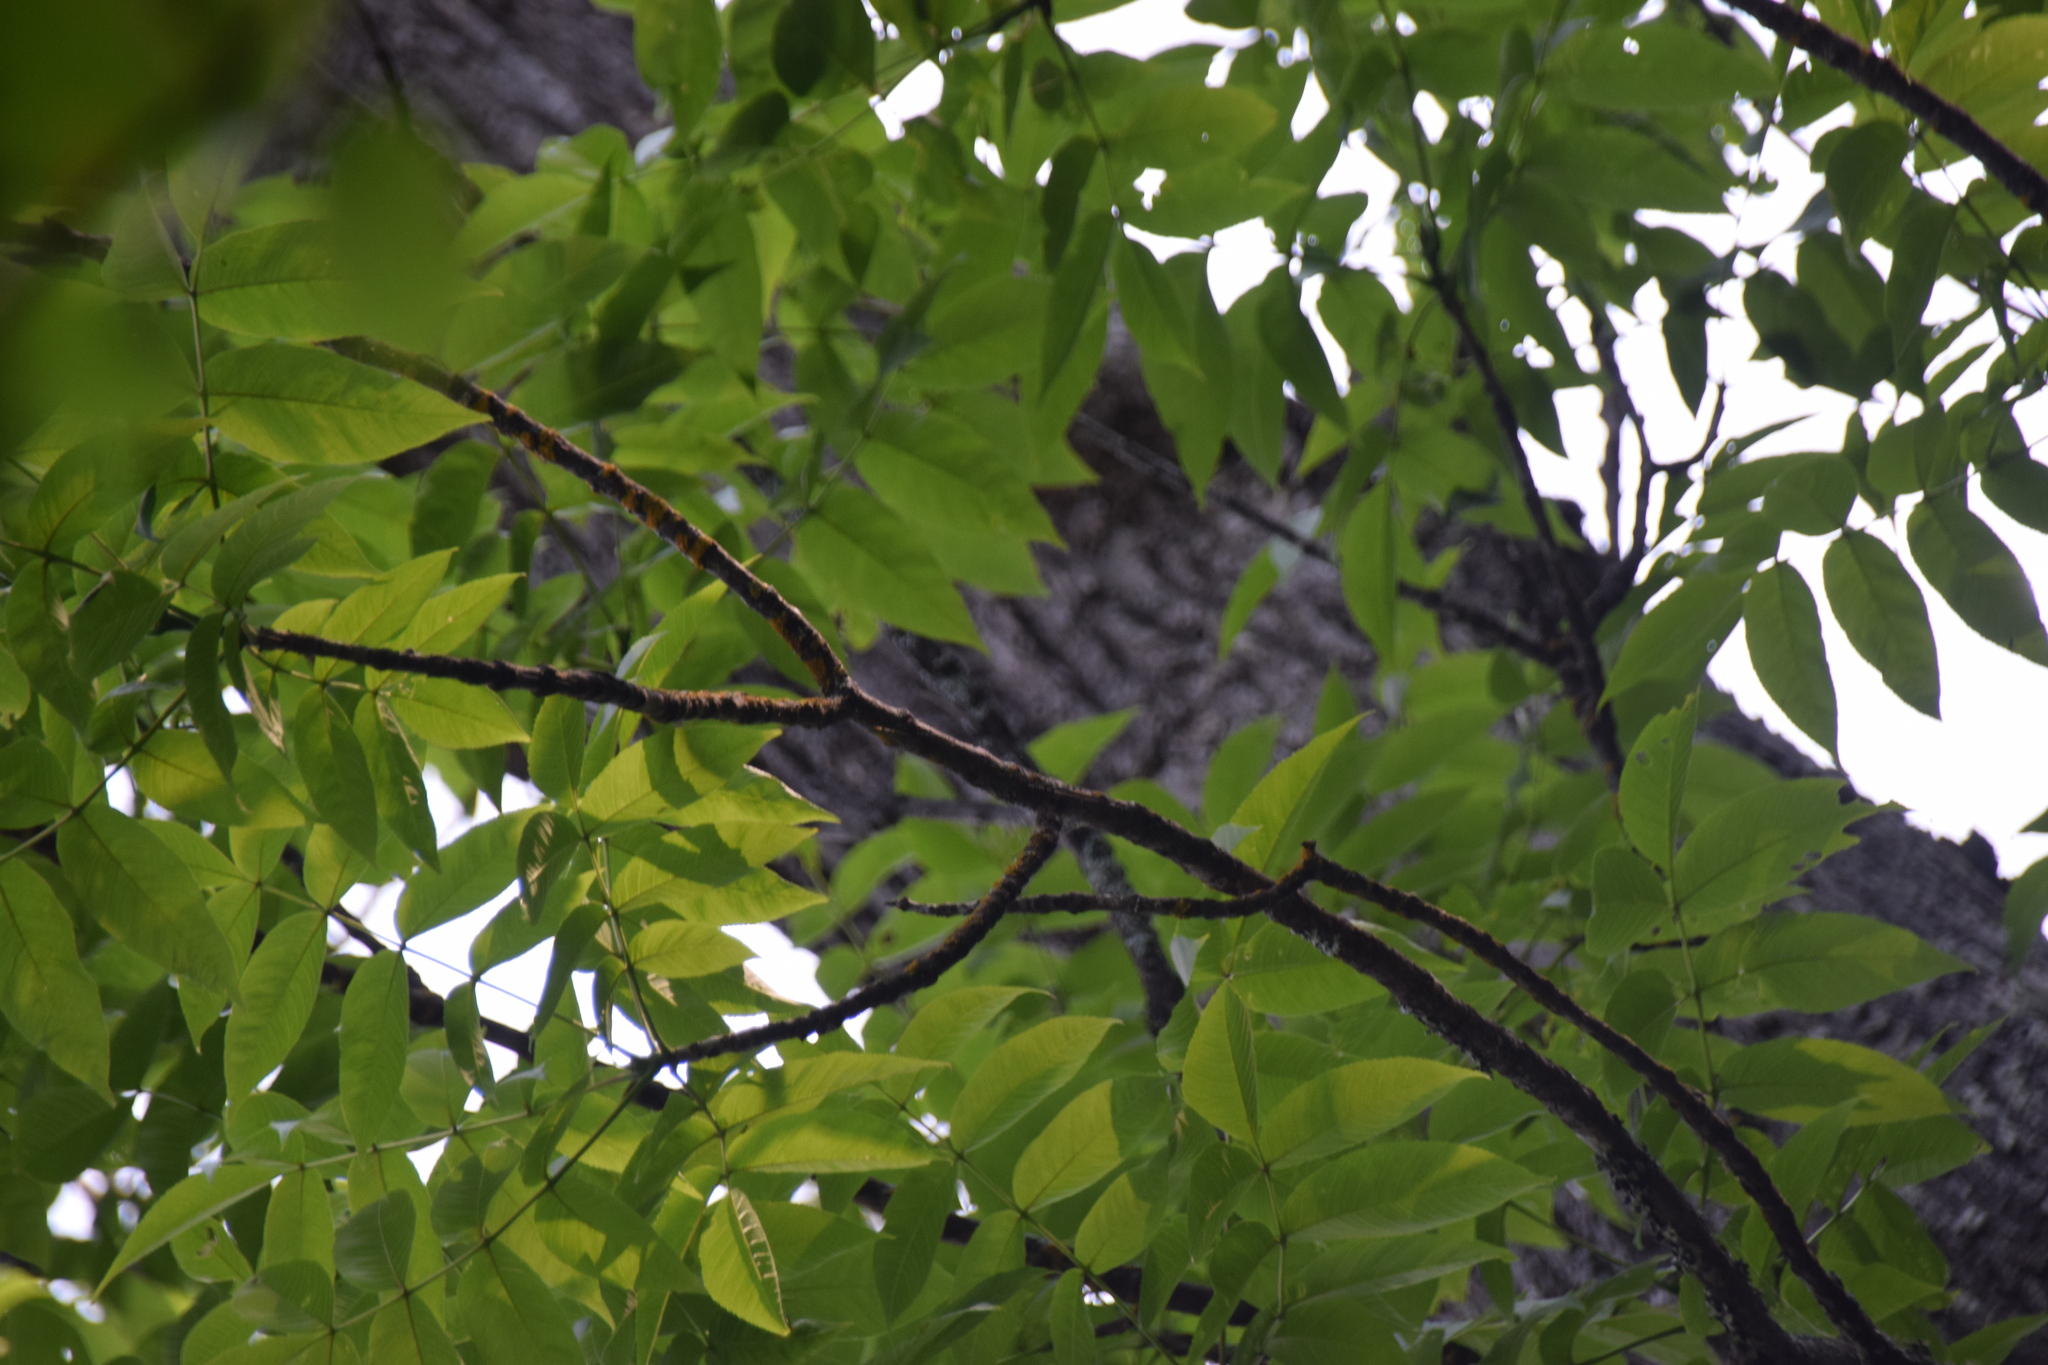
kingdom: Plantae
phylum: Tracheophyta
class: Magnoliopsida
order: Lamiales
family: Oleaceae
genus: Fraxinus
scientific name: Fraxinus nigra
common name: Black ash
